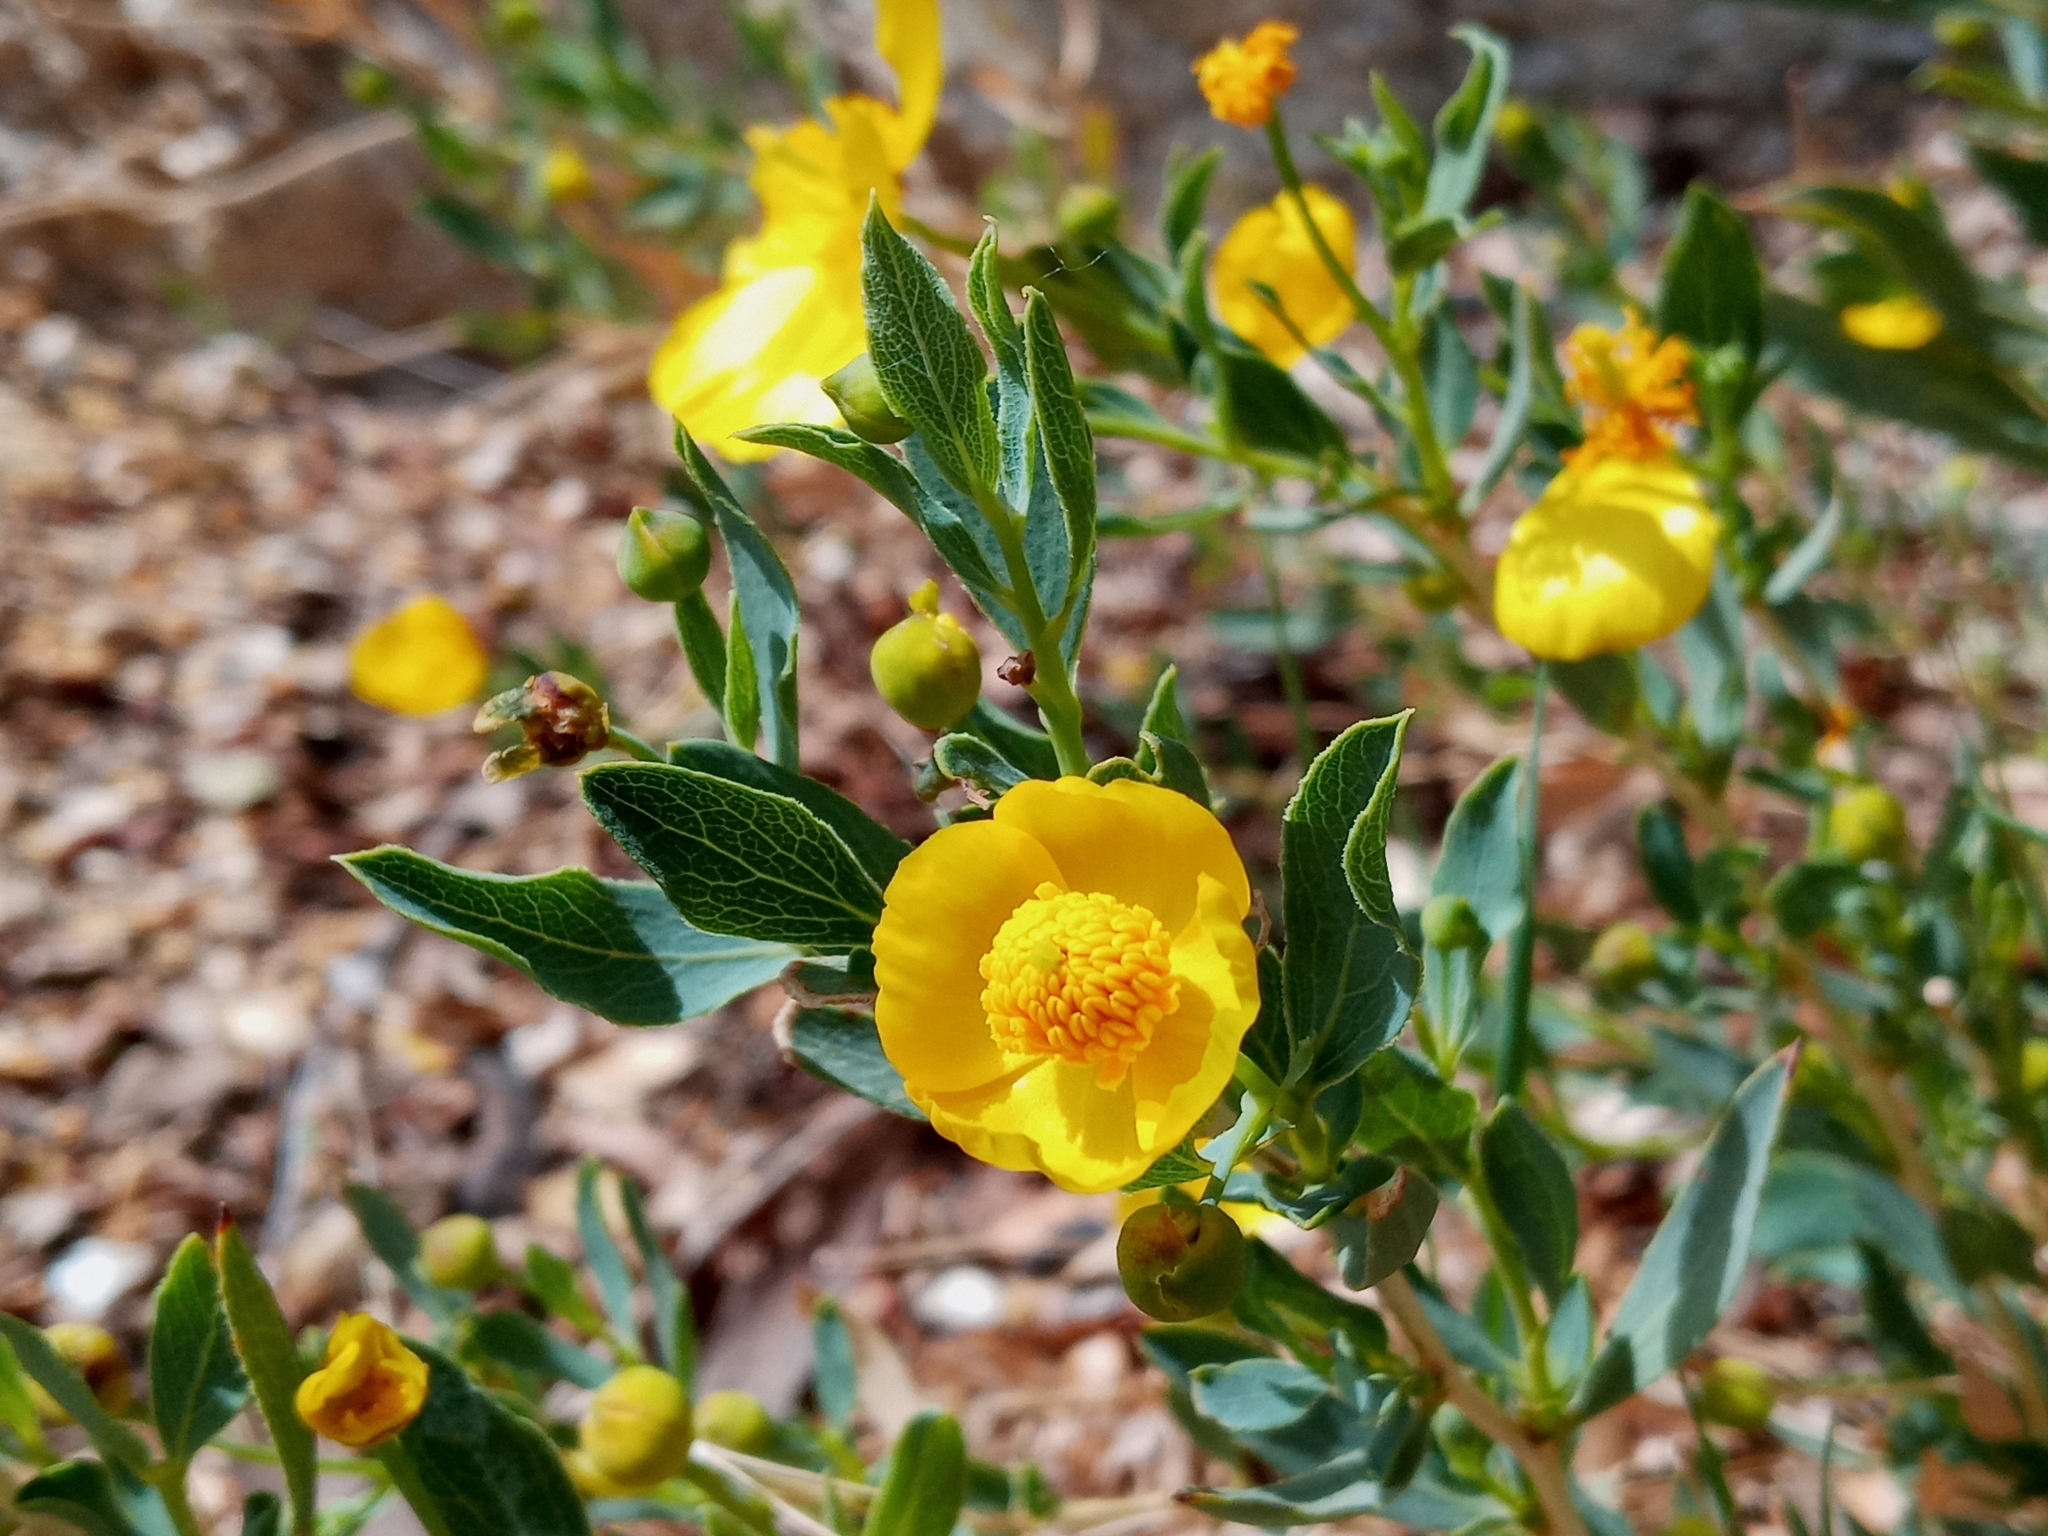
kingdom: Plantae
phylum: Tracheophyta
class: Magnoliopsida
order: Ranunculales
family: Papaveraceae
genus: Dendromecon
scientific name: Dendromecon rigida
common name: Tree poppy
